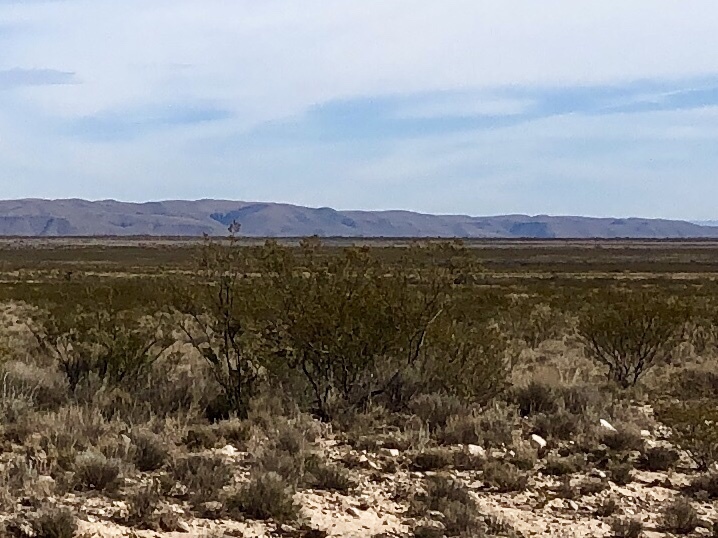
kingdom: Plantae
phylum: Tracheophyta
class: Magnoliopsida
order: Zygophyllales
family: Zygophyllaceae
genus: Larrea
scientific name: Larrea tridentata
